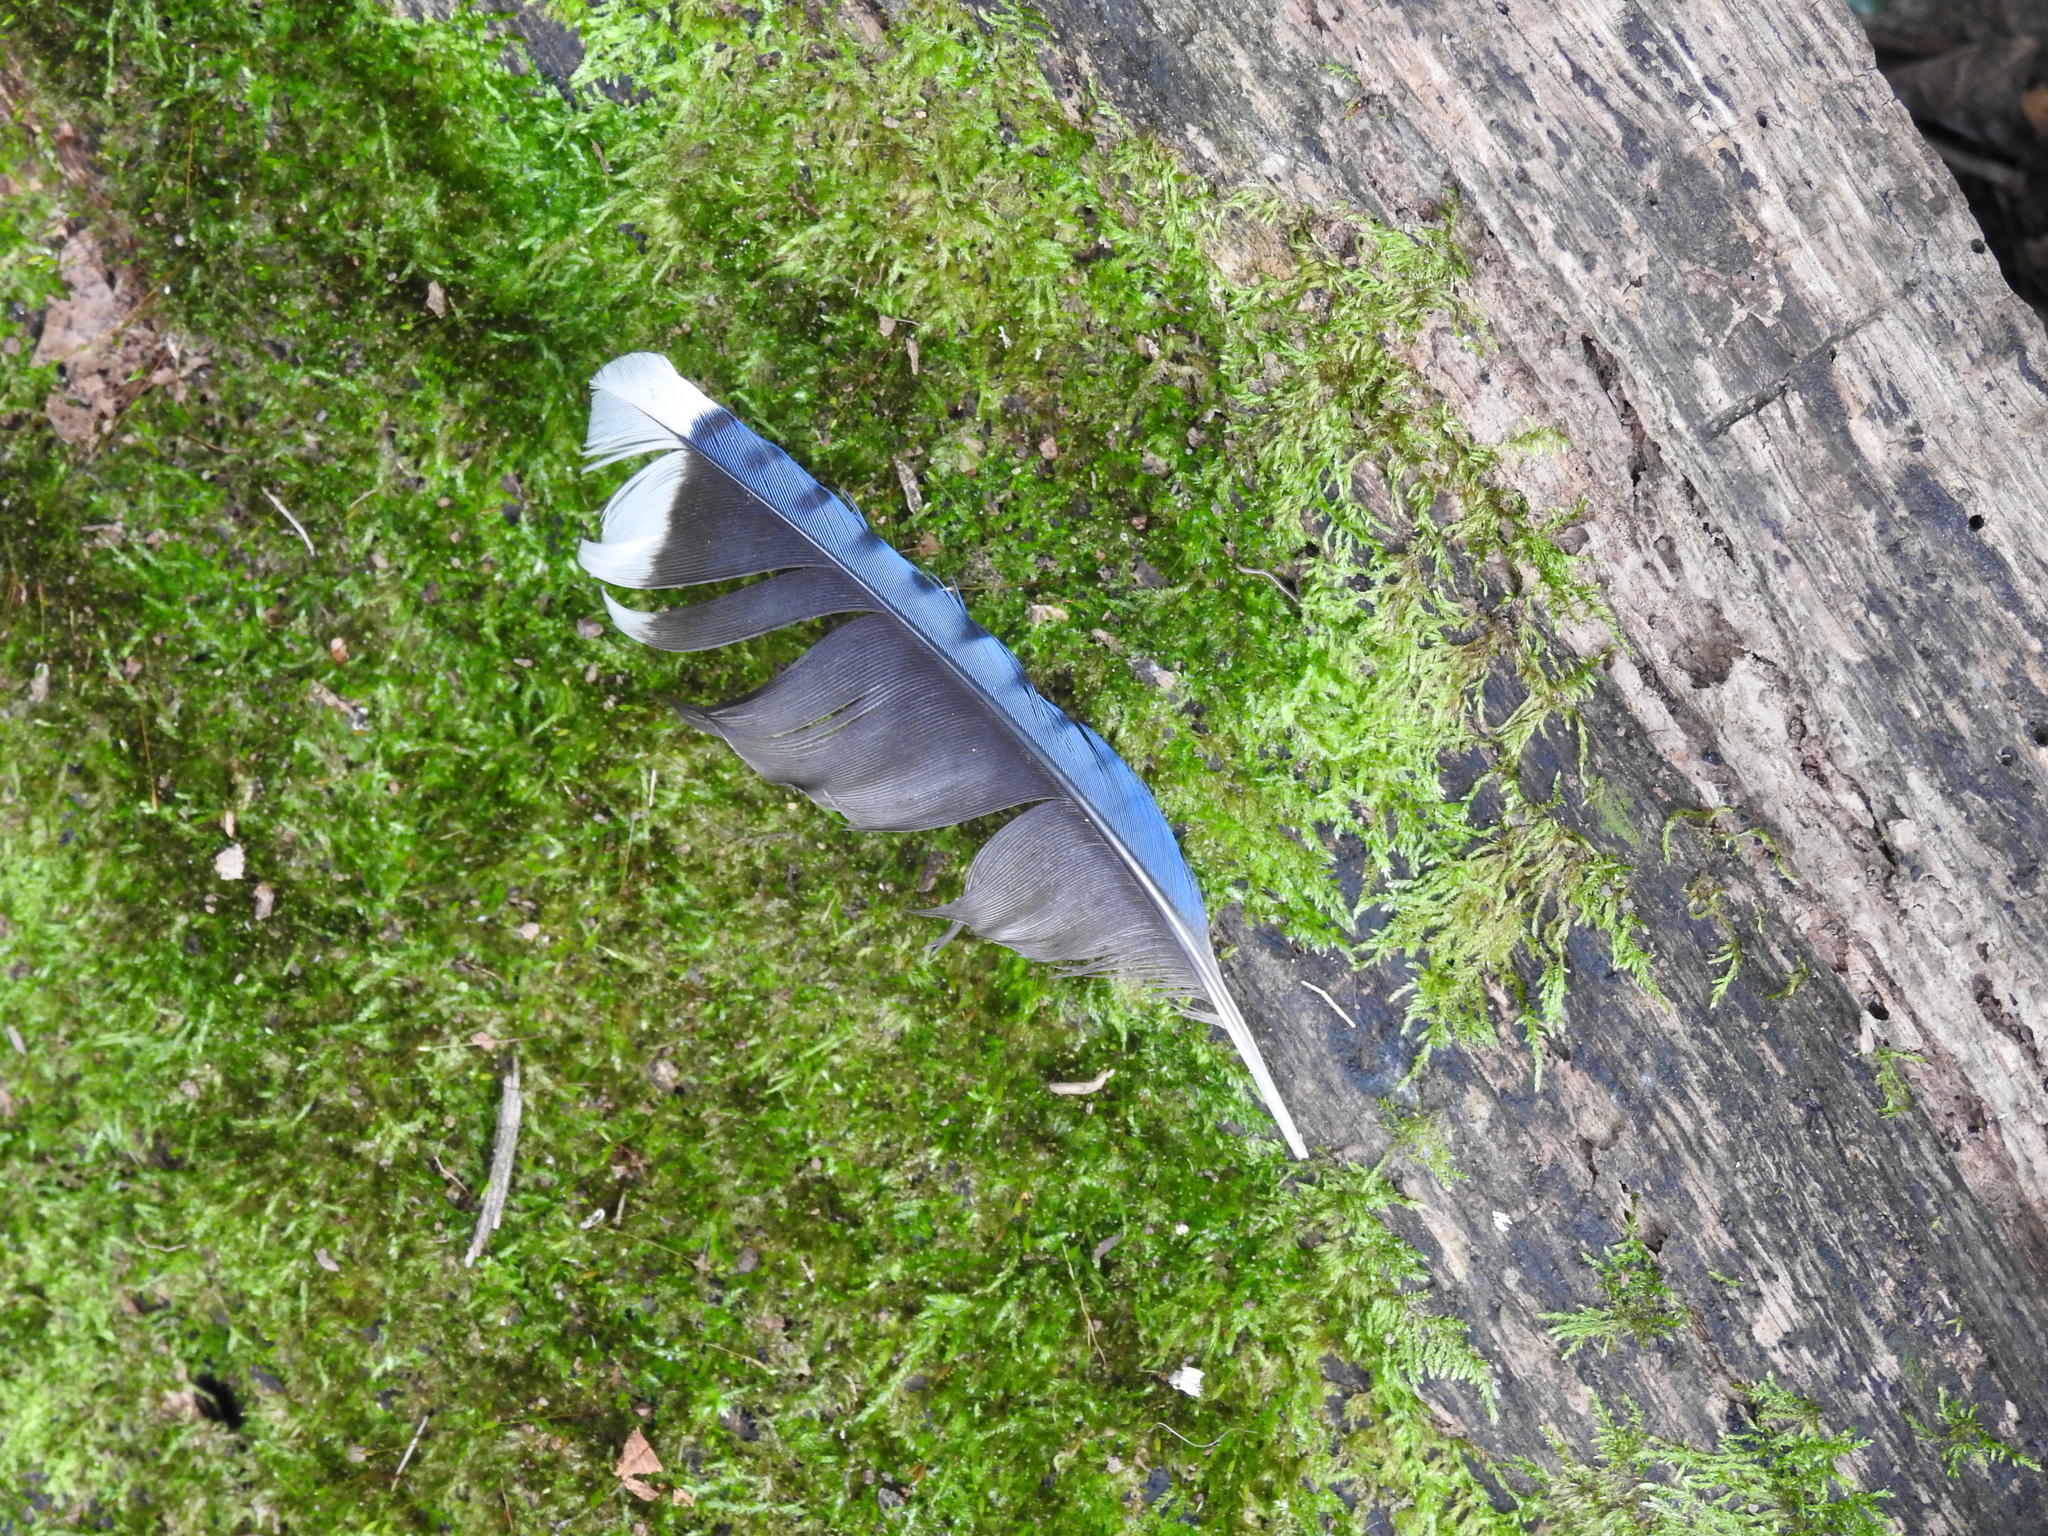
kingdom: Animalia
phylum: Chordata
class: Aves
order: Passeriformes
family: Corvidae
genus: Cyanocitta
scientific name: Cyanocitta cristata
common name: Blue jay
